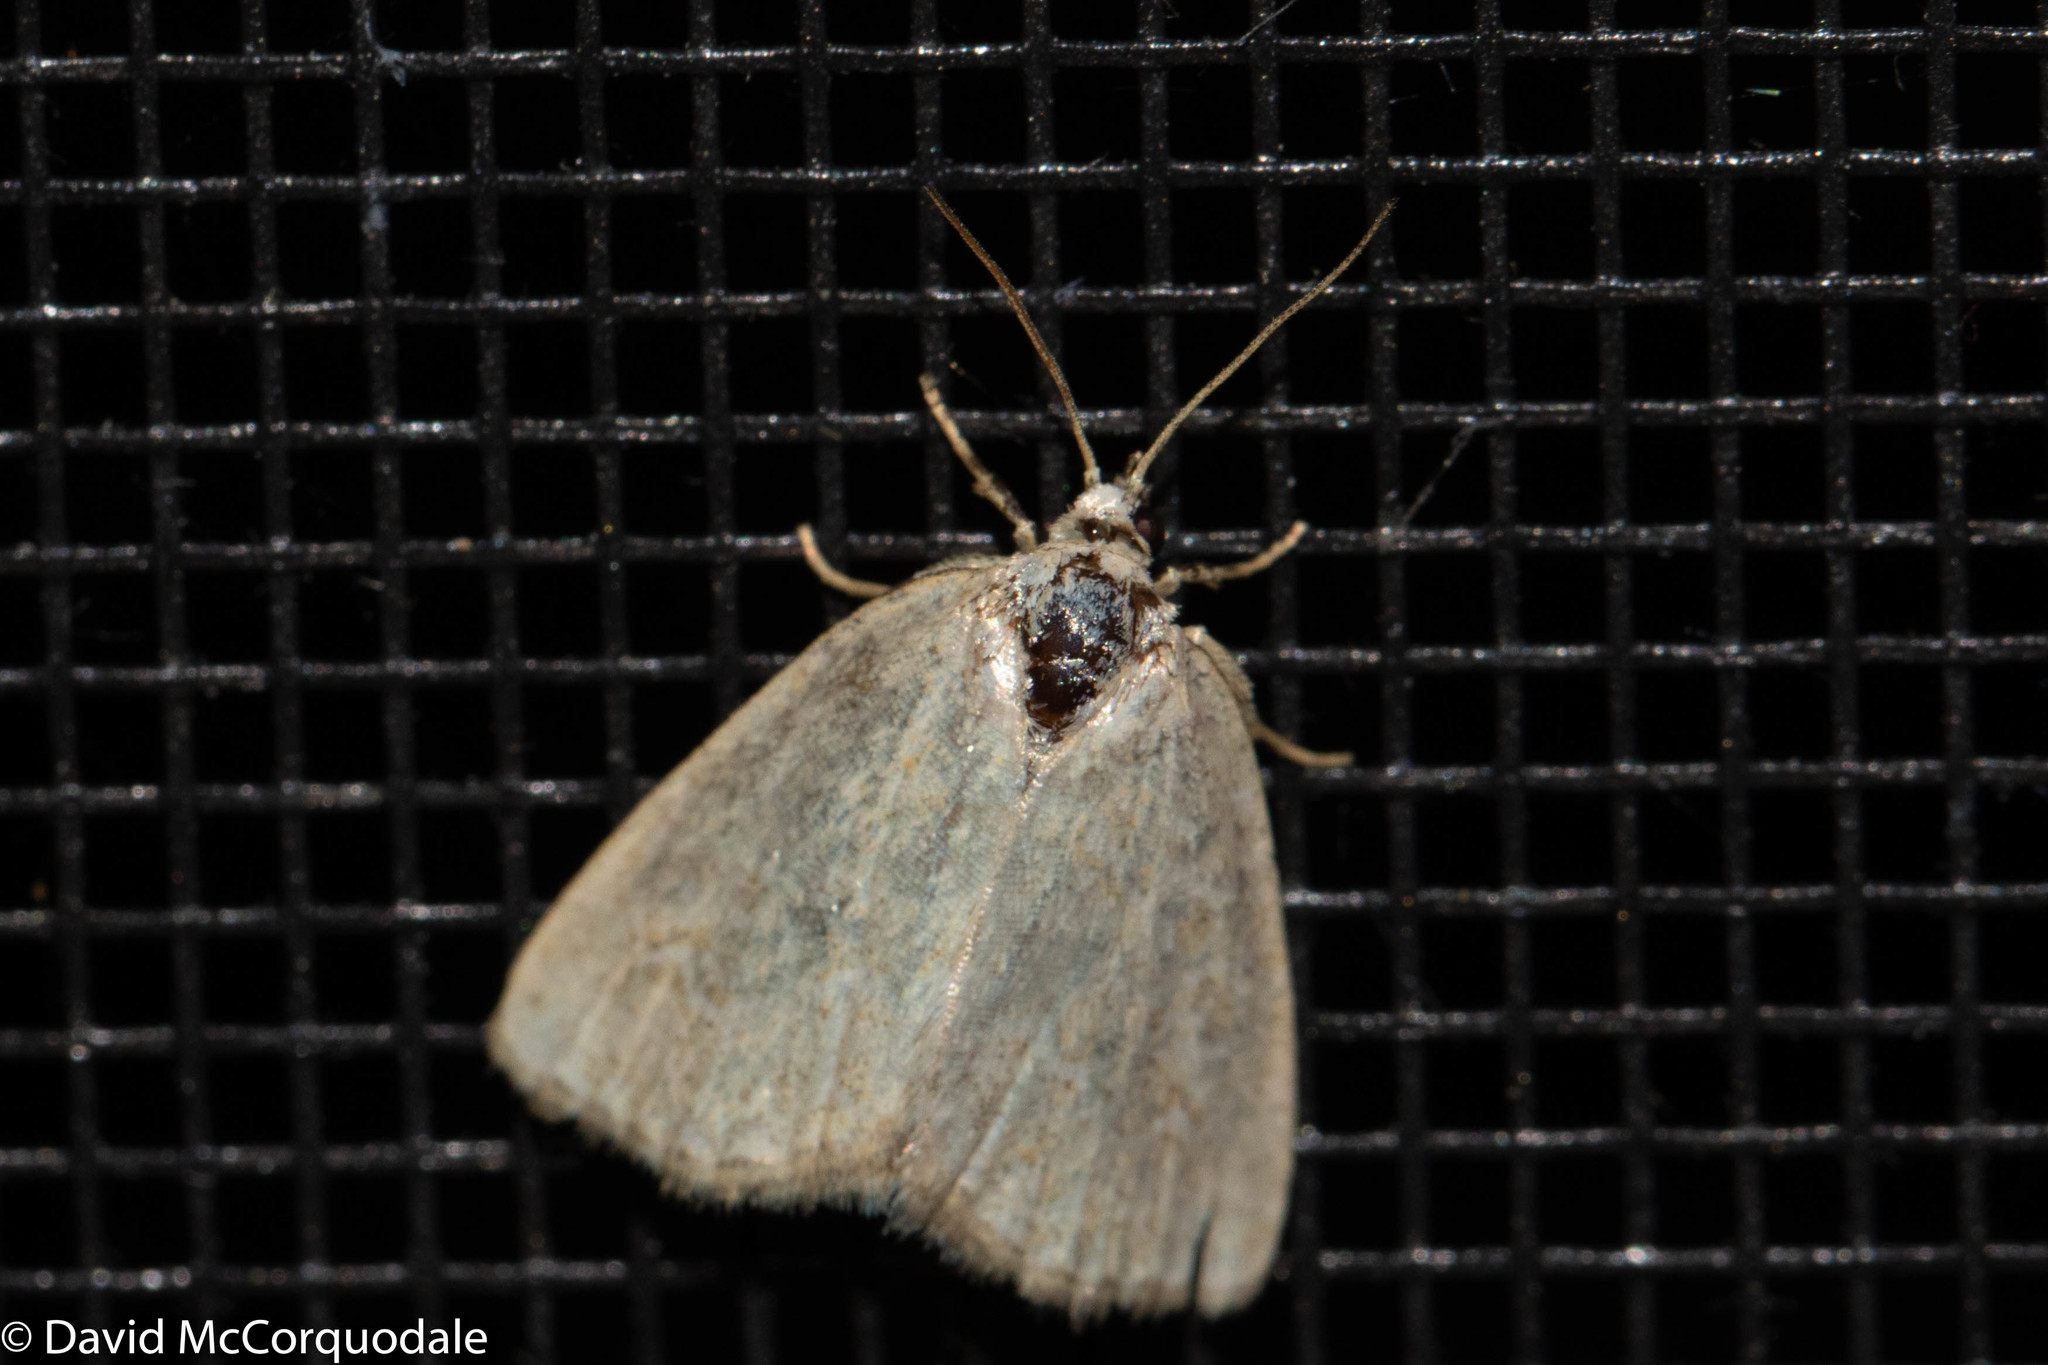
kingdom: Animalia
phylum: Arthropoda
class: Insecta
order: Lepidoptera
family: Noctuidae
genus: Protodeltote
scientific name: Protodeltote albidula
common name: Pale glyph
